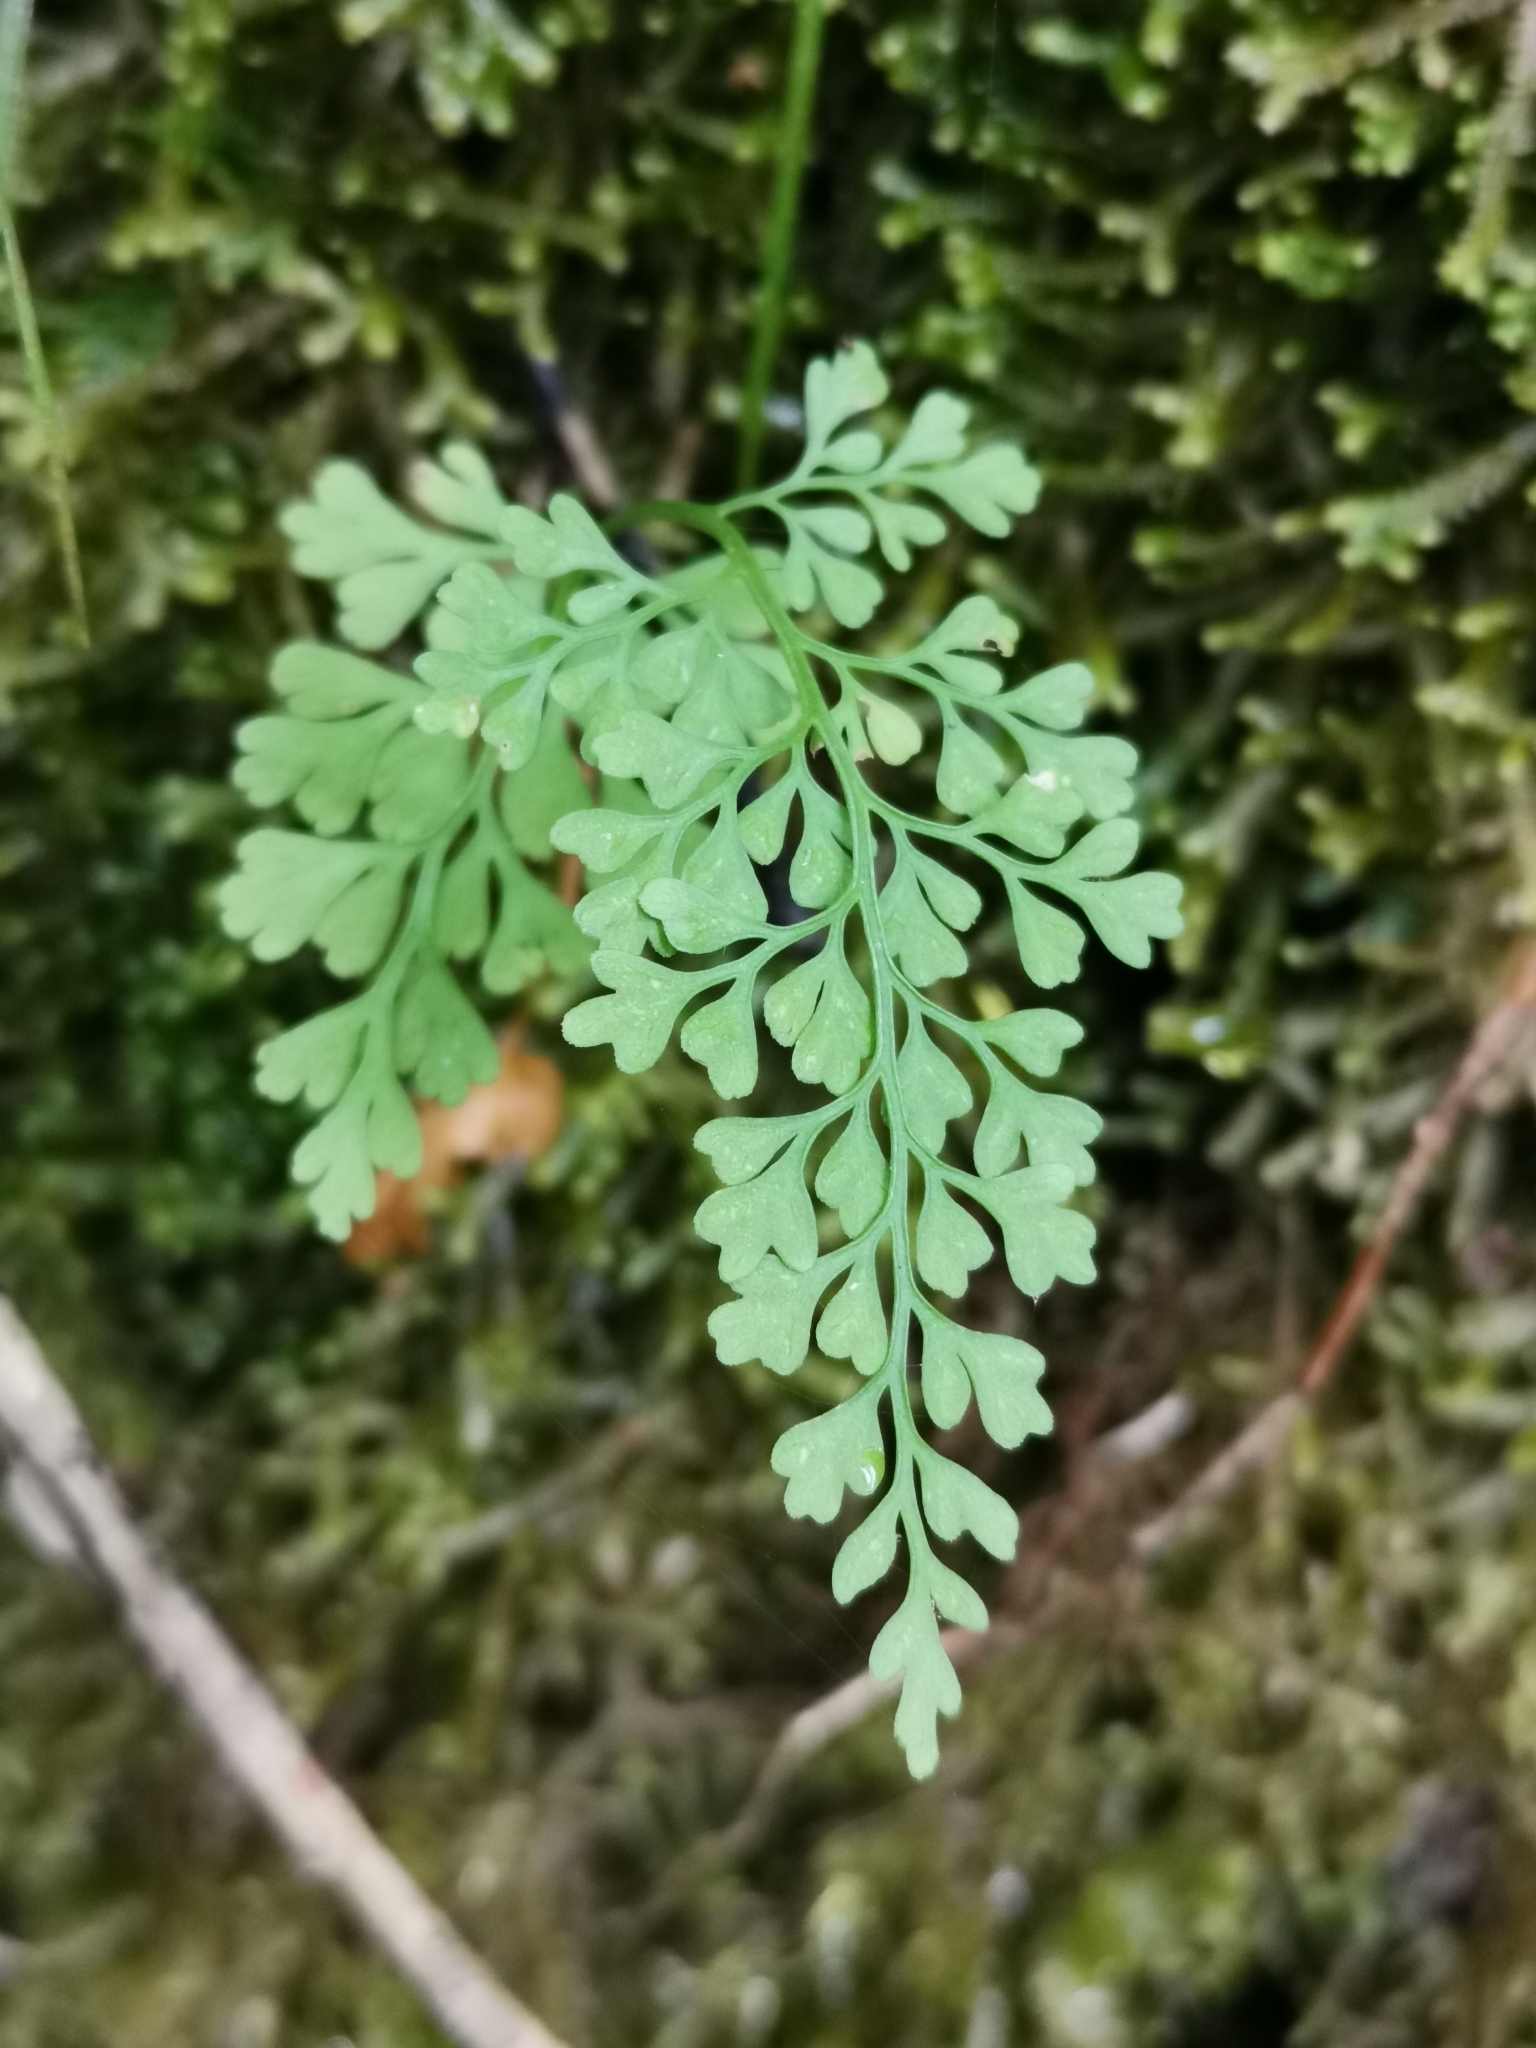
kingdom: Plantae
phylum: Tracheophyta
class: Polypodiopsida
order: Polypodiales
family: Aspleniaceae
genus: Asplenium
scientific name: Asplenium dareoides
